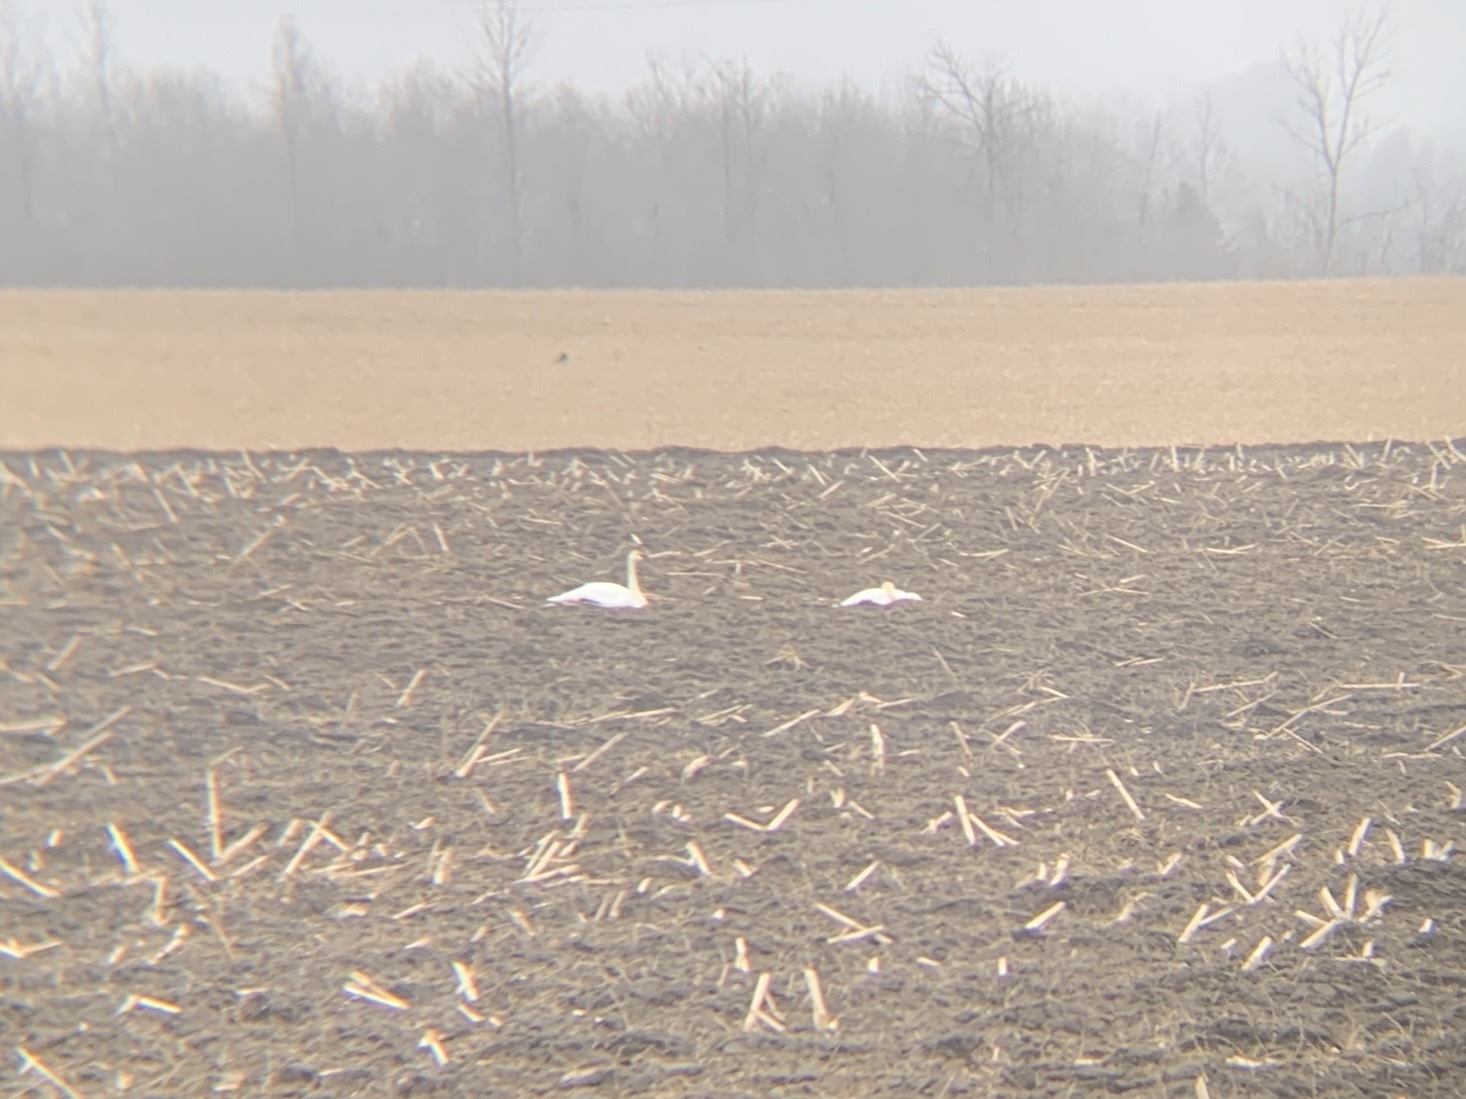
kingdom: Animalia
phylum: Chordata
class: Aves
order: Anseriformes
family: Anatidae
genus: Cygnus
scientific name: Cygnus buccinator
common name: Trumpeter swan
